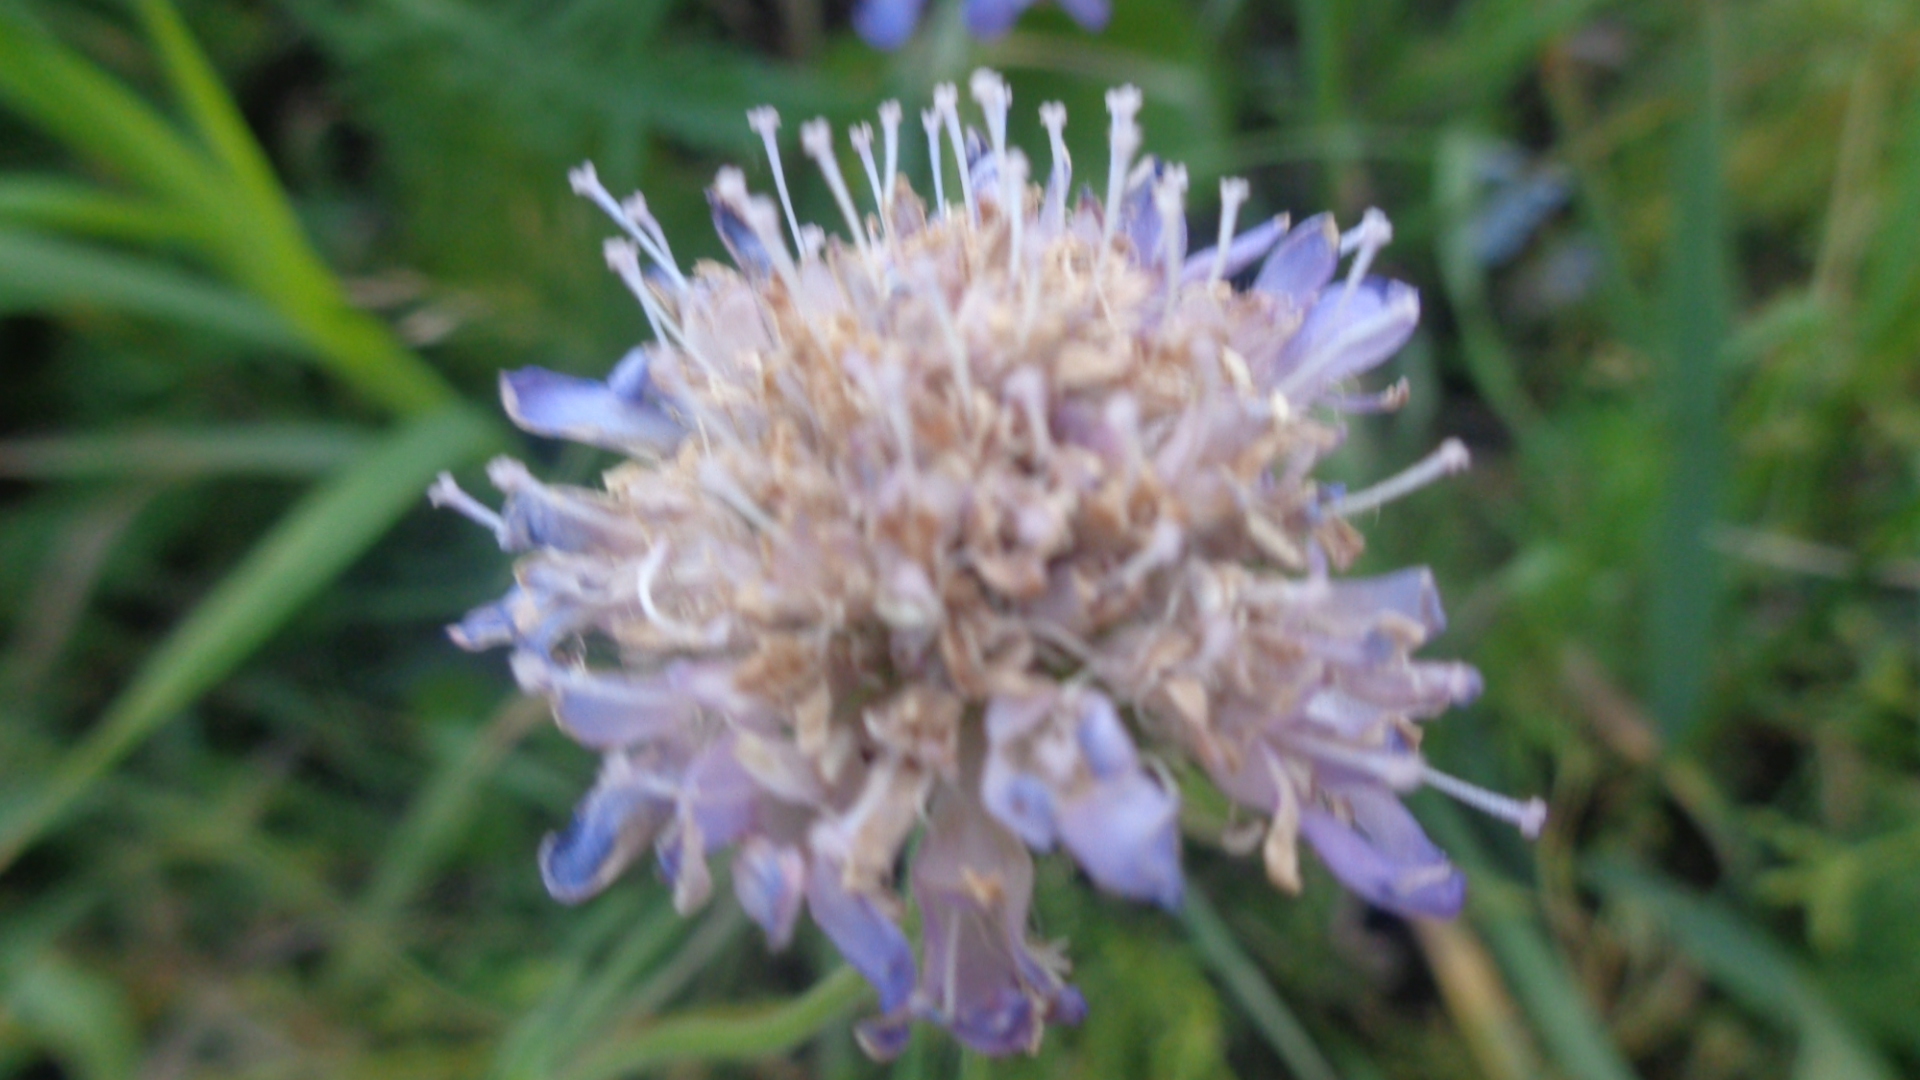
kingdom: Plantae
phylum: Tracheophyta
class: Magnoliopsida
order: Dipsacales
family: Caprifoliaceae
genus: Knautia
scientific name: Knautia arvensis
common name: Field scabiosa
